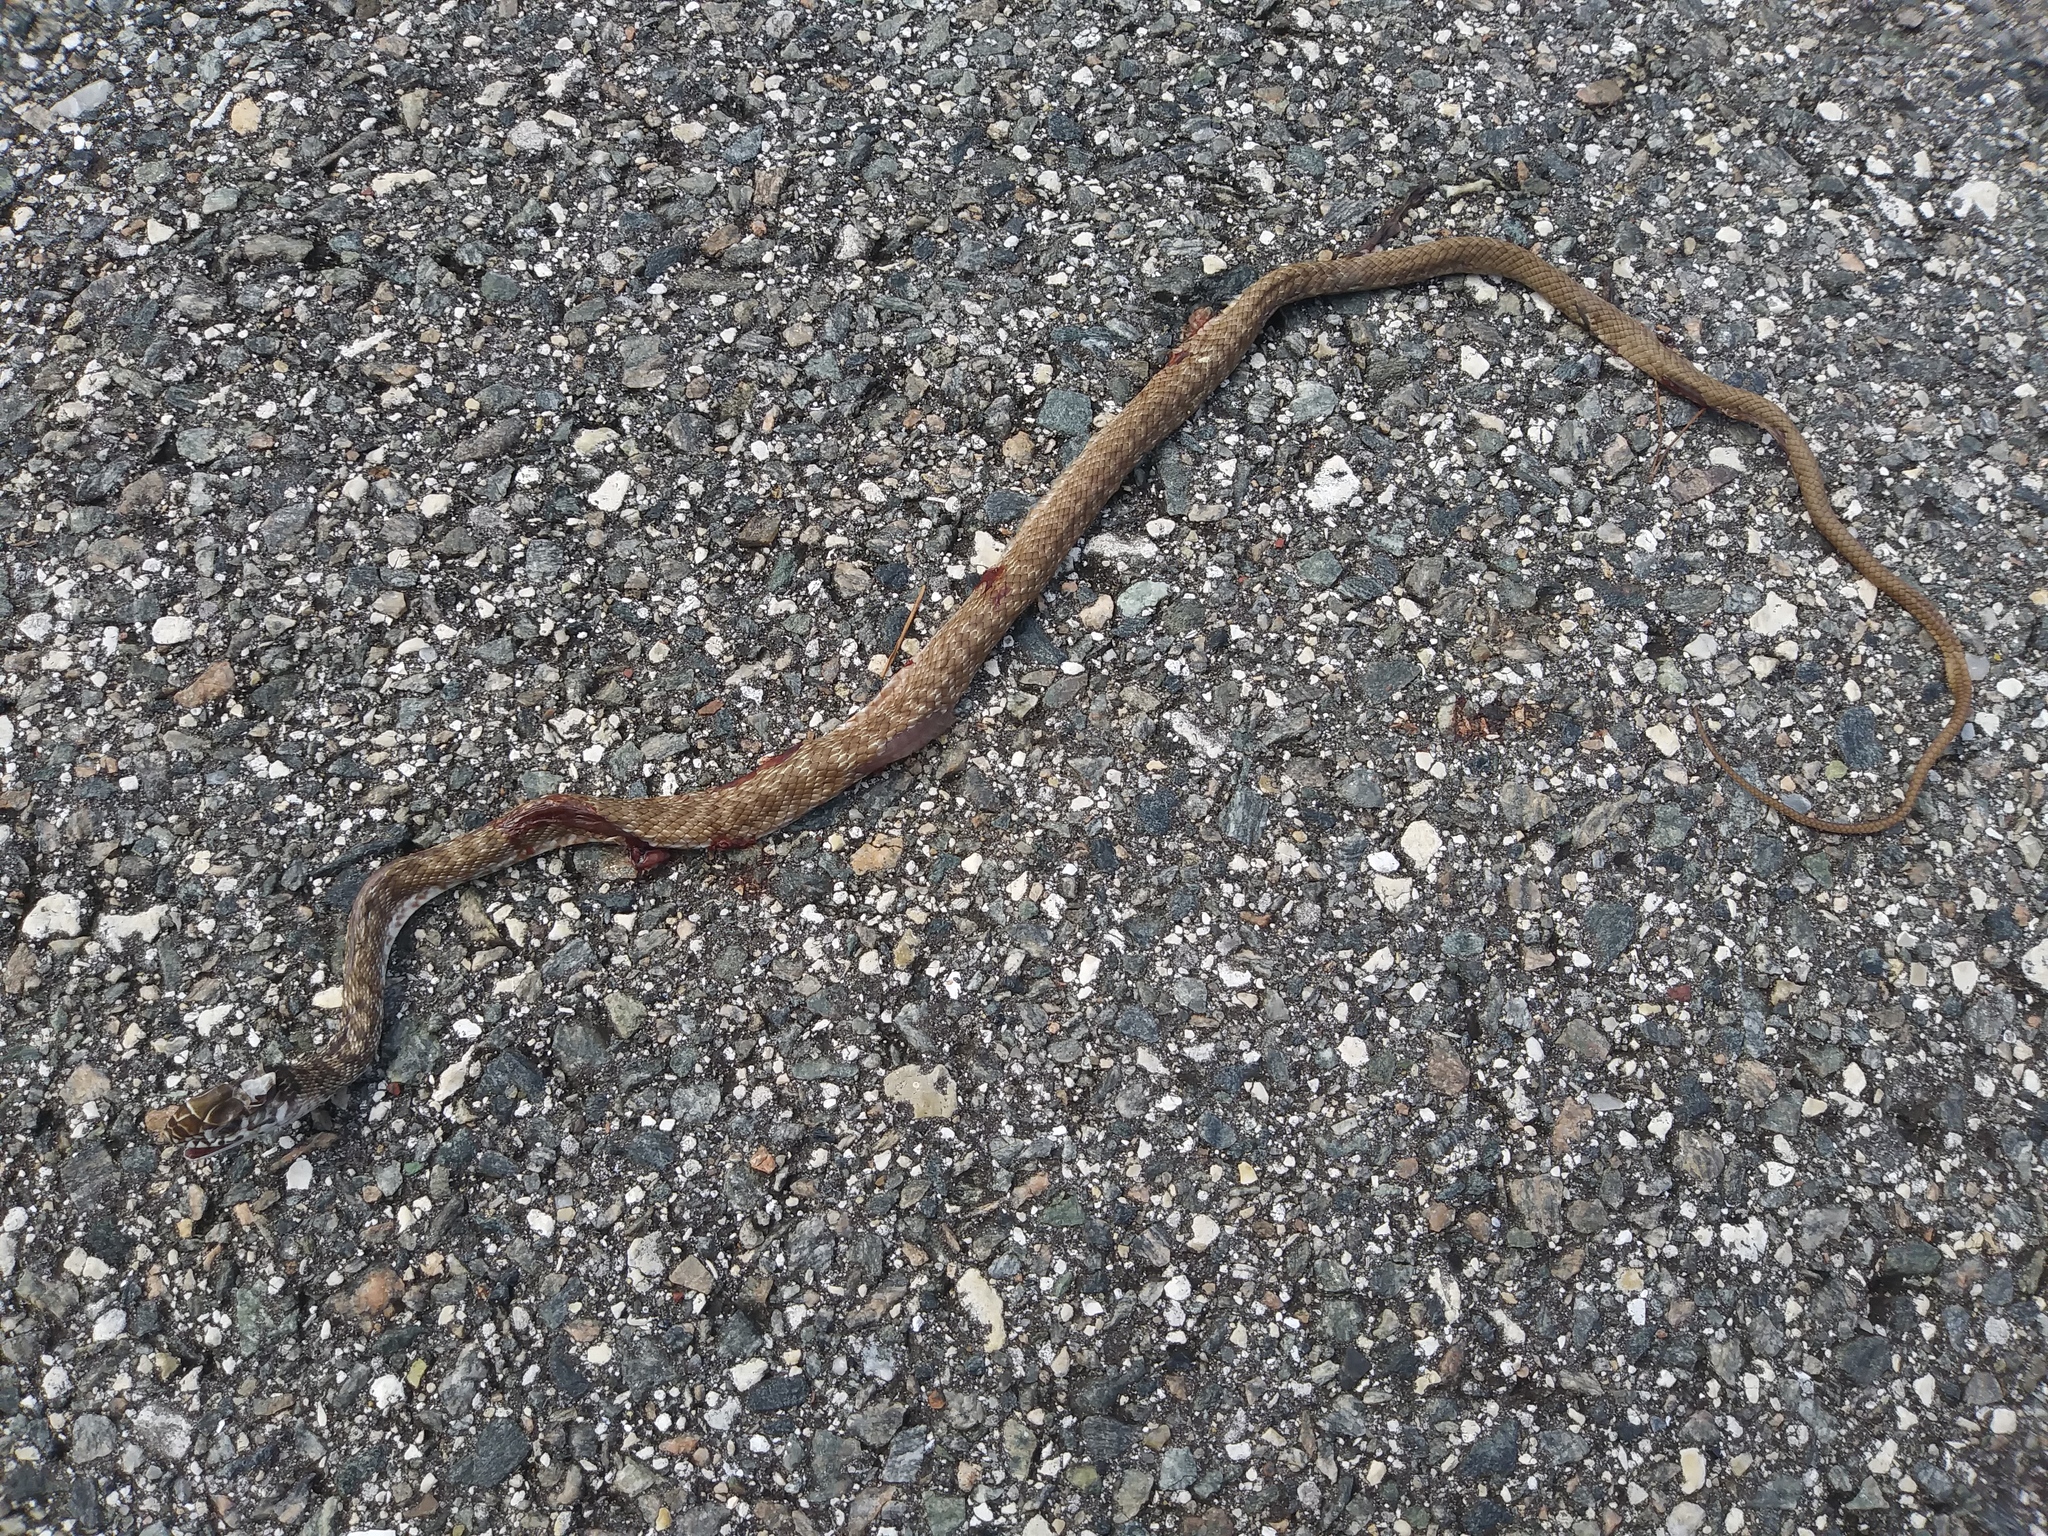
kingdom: Animalia
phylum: Chordata
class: Squamata
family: Colubridae
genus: Masticophis
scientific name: Masticophis flagellum
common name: Coachwhip
